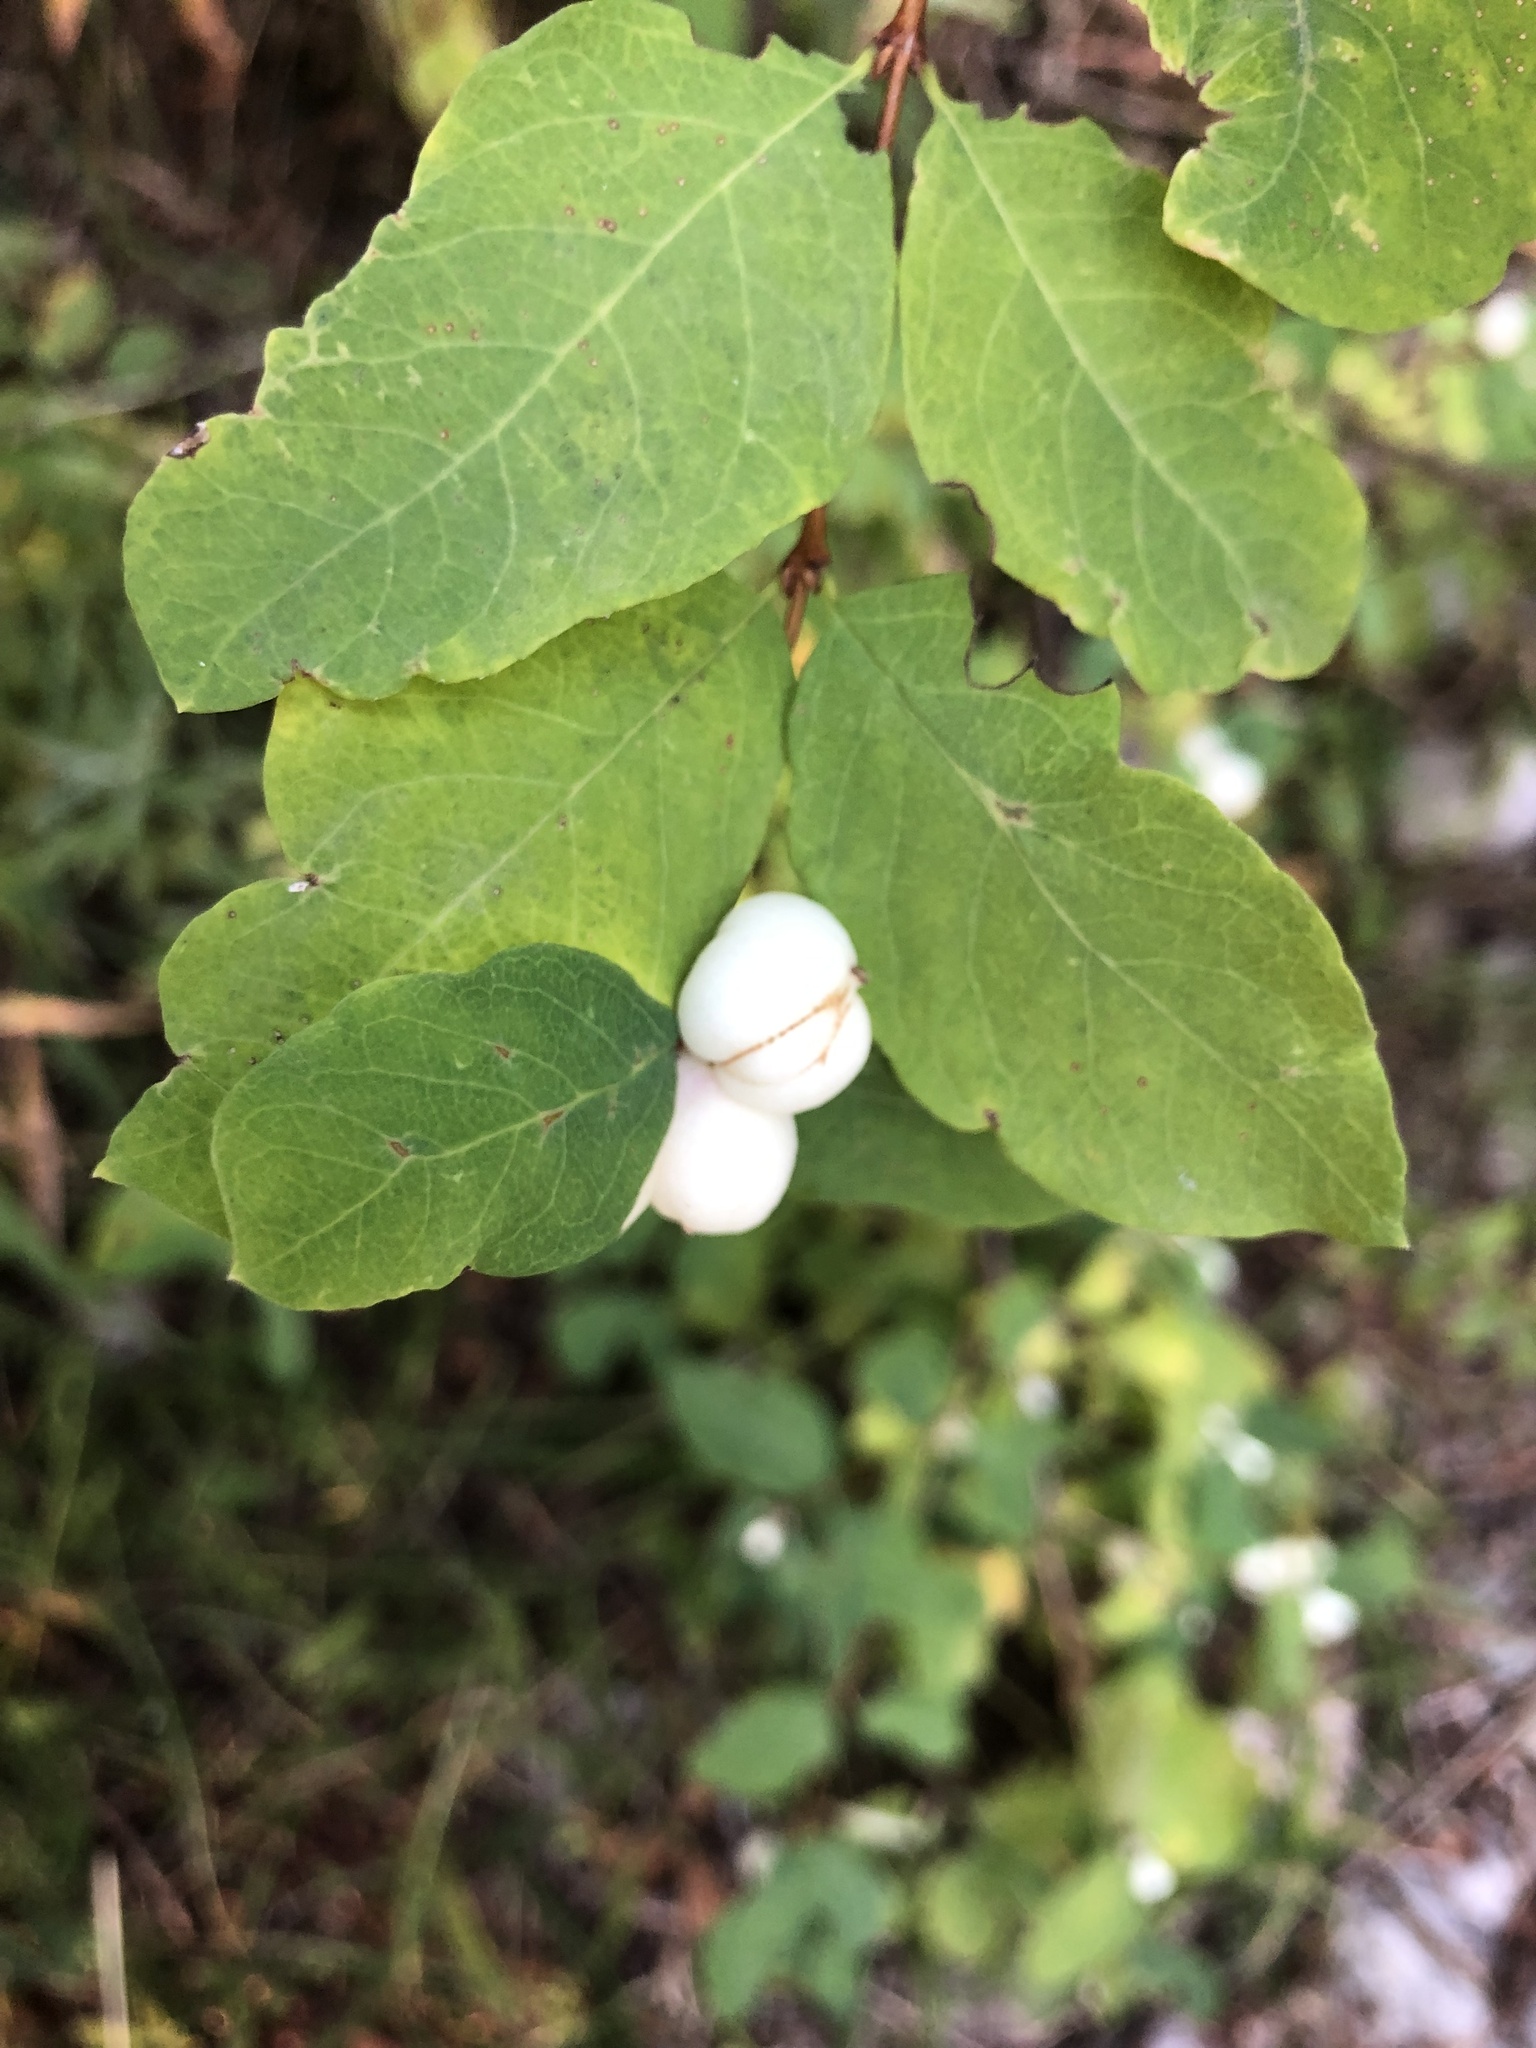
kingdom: Plantae
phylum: Tracheophyta
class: Magnoliopsida
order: Dipsacales
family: Caprifoliaceae
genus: Symphoricarpos
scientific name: Symphoricarpos albus
